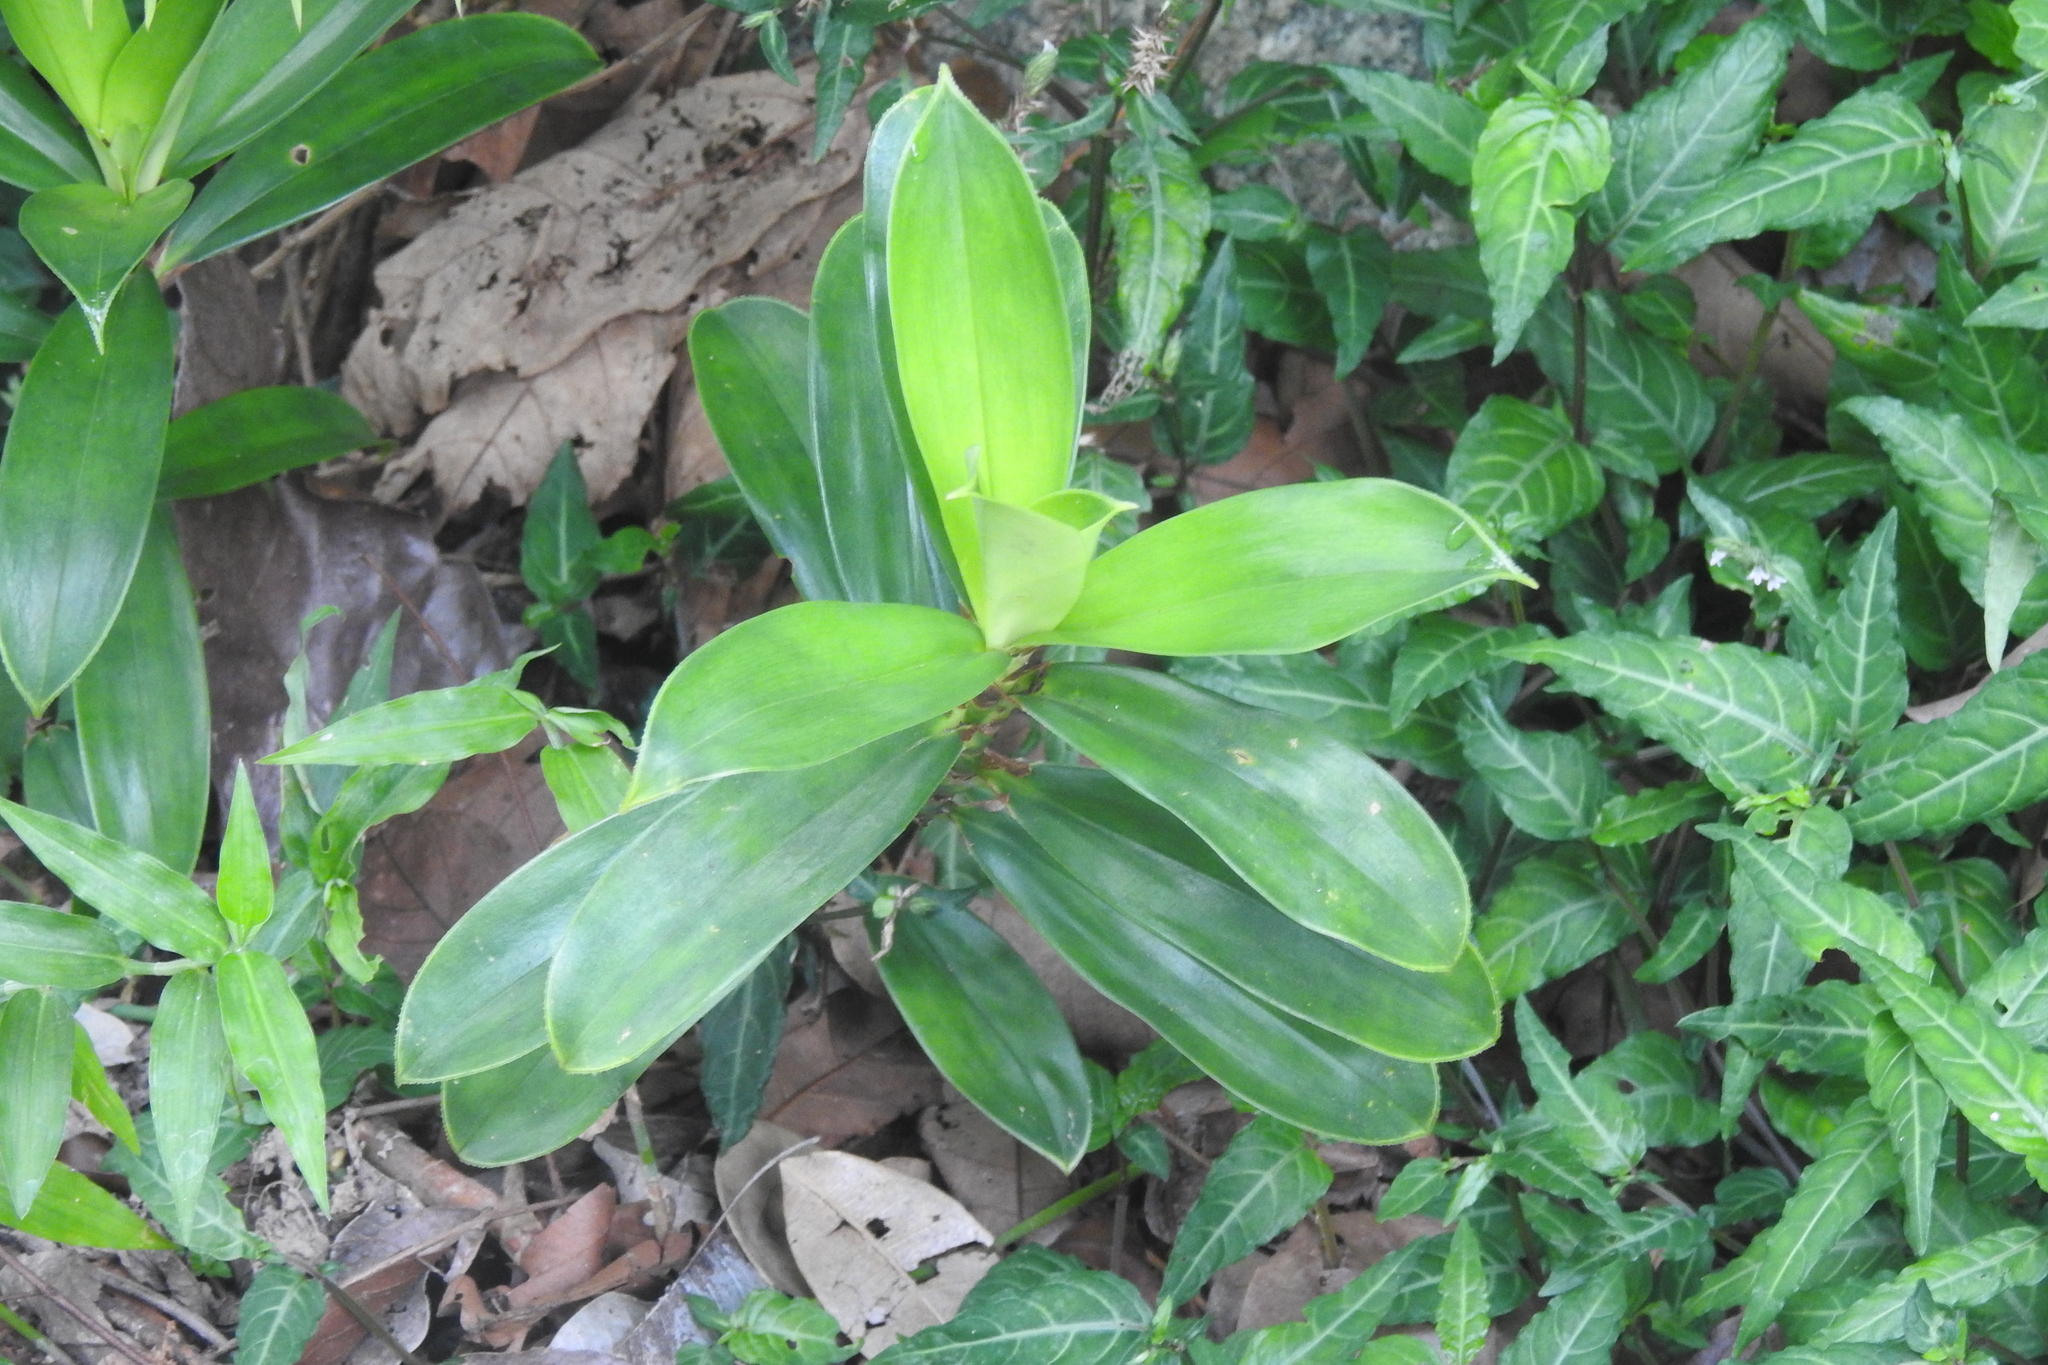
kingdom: Plantae
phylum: Tracheophyta
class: Liliopsida
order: Pandanales
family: Pandanaceae
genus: Freycinetia
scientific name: Freycinetia javanica
